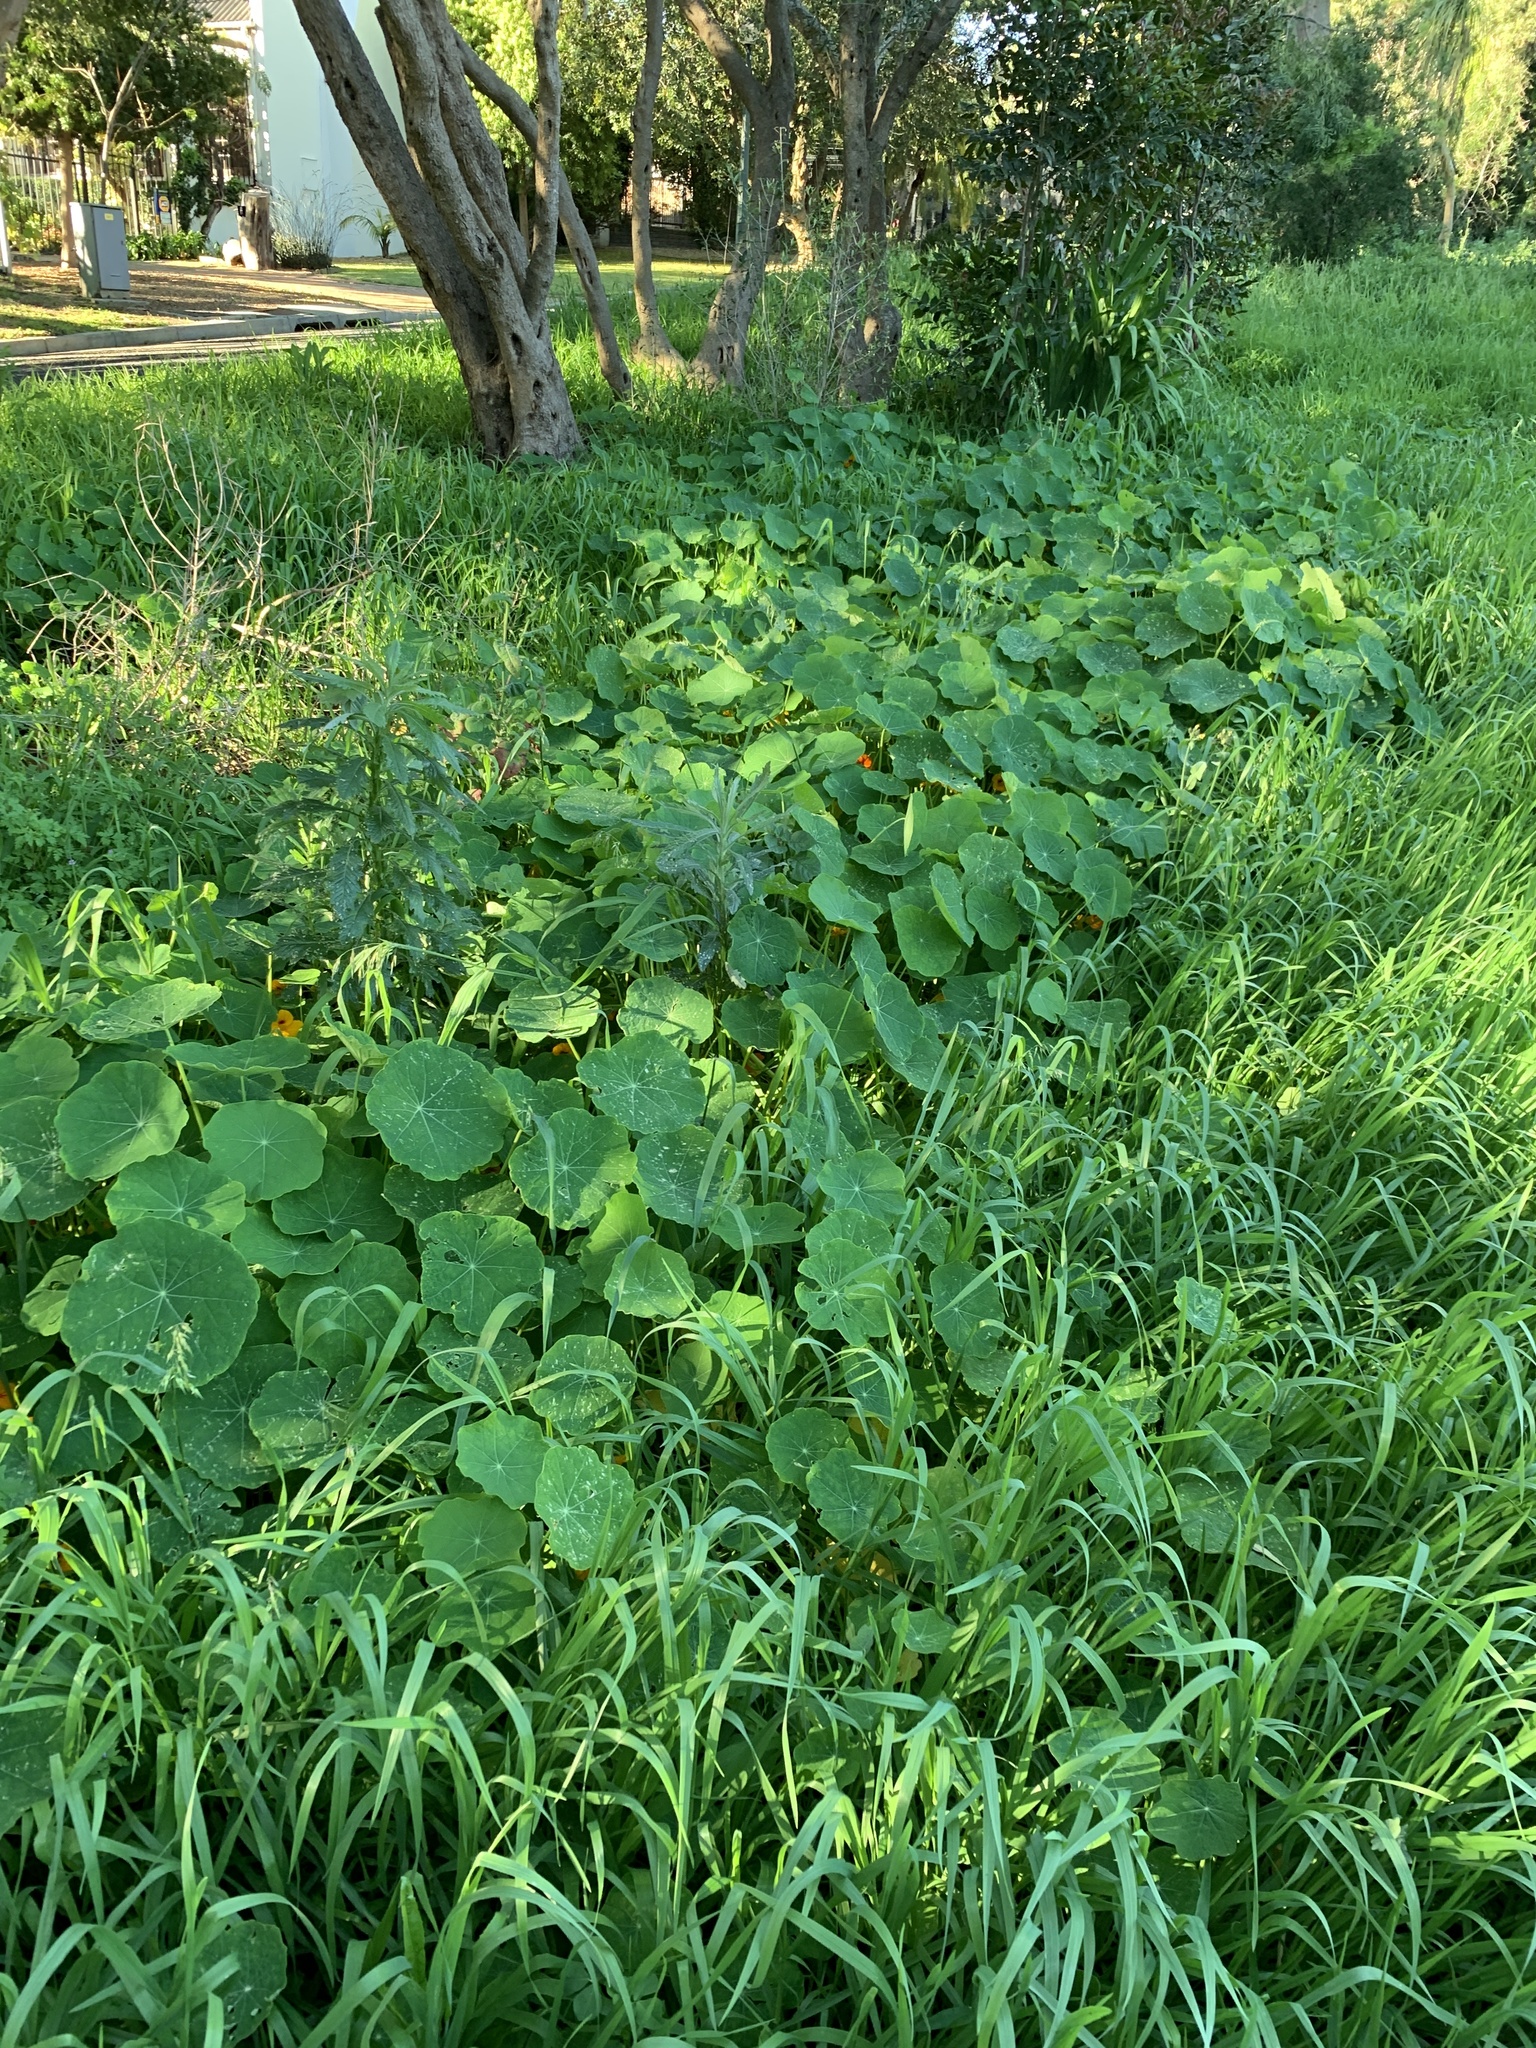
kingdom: Plantae
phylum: Tracheophyta
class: Magnoliopsida
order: Brassicales
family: Tropaeolaceae
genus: Tropaeolum
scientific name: Tropaeolum majus
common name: Nasturtium
